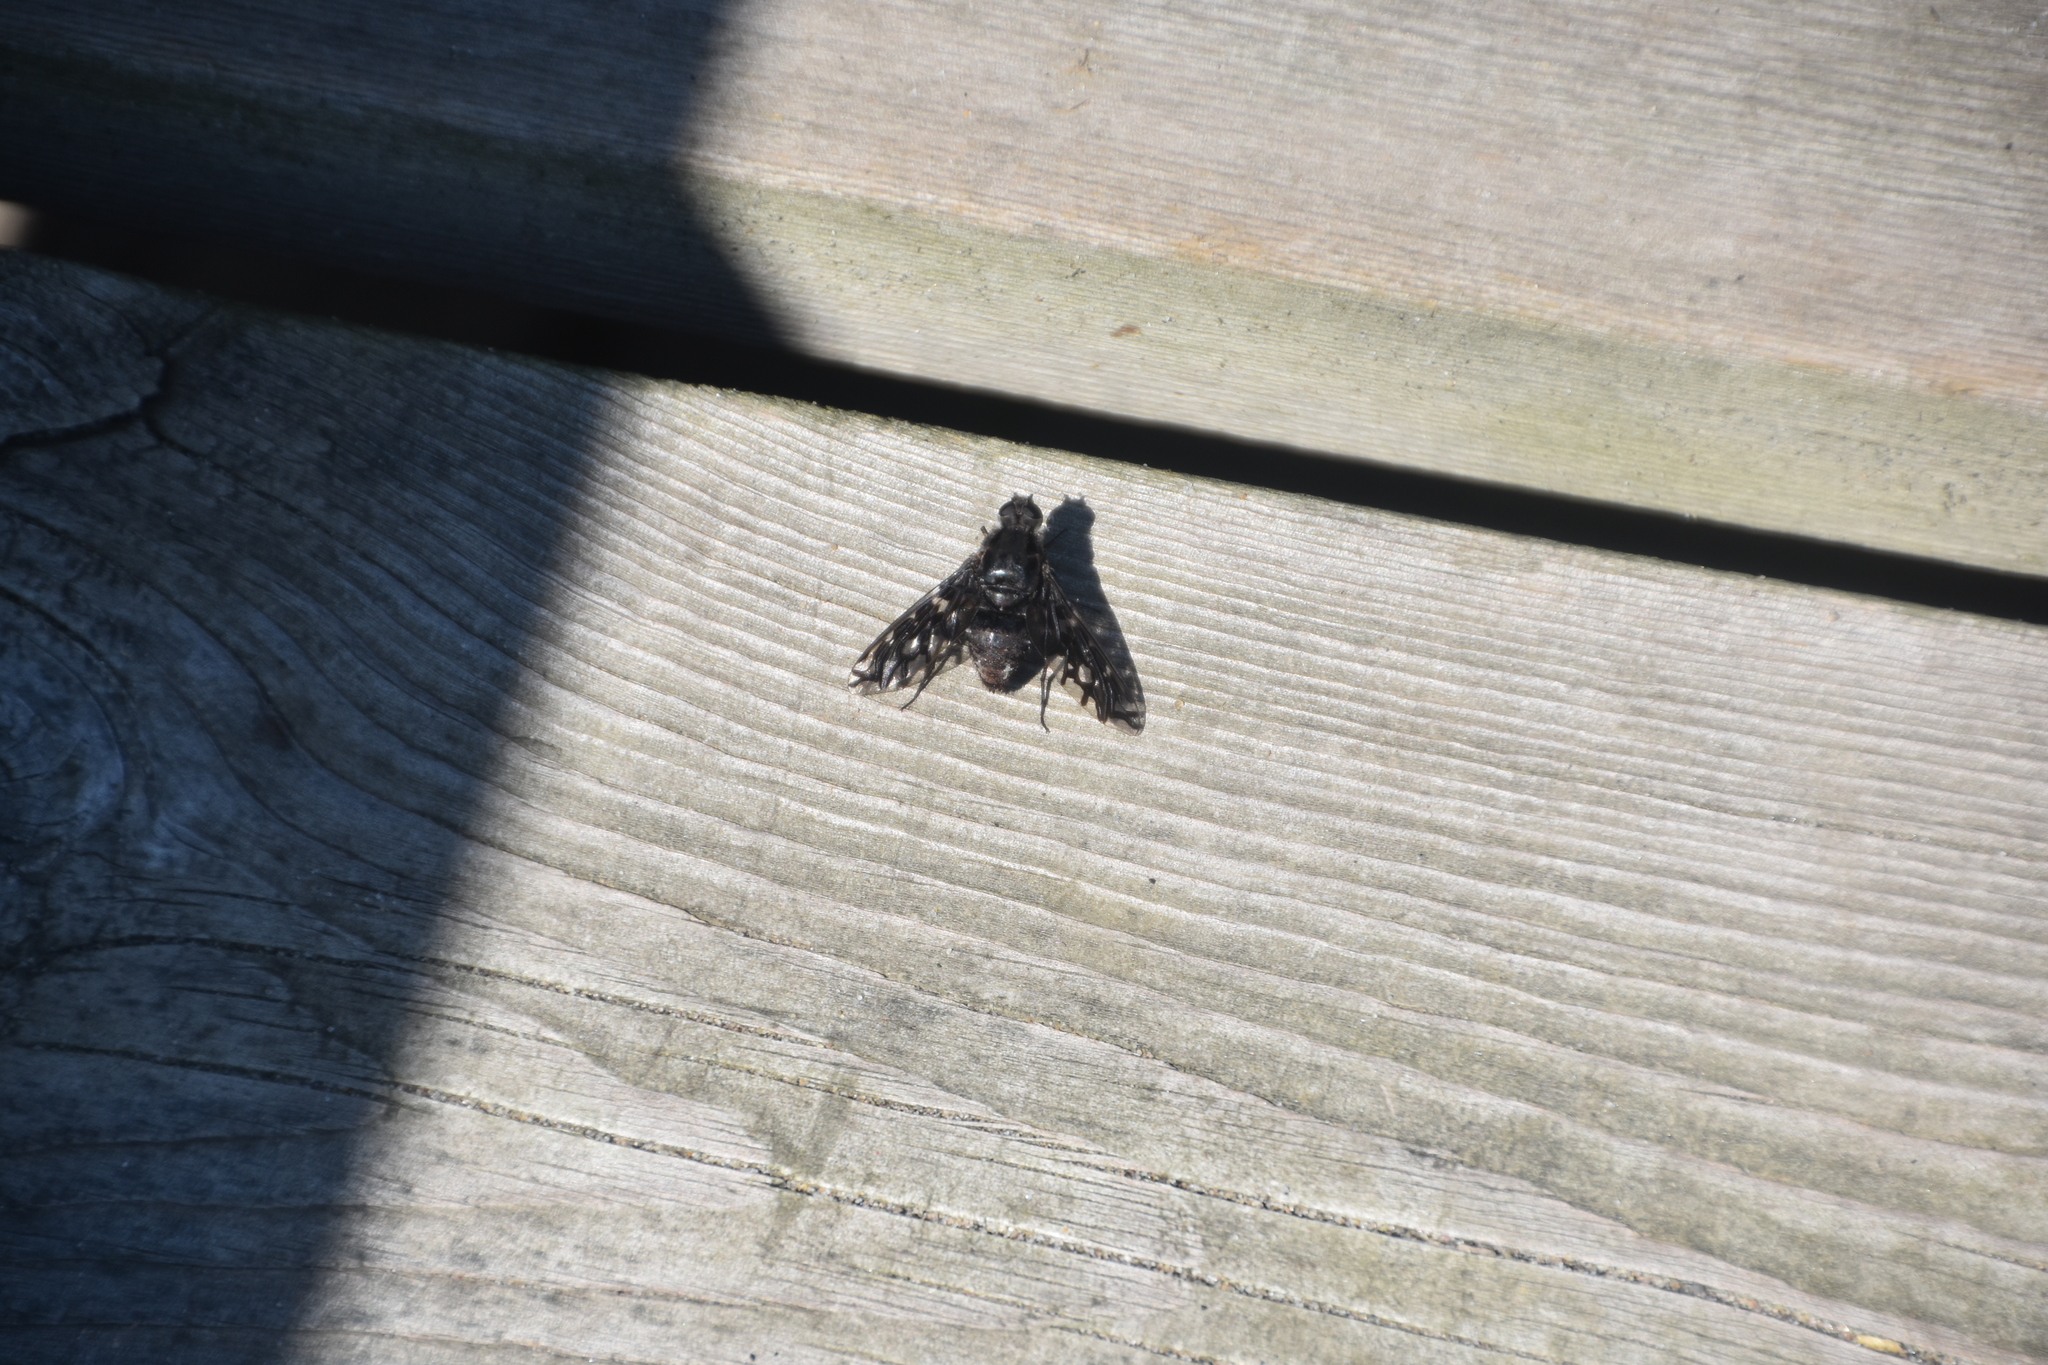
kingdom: Animalia
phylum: Arthropoda
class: Insecta
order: Diptera
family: Bombyliidae
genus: Xenox
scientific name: Xenox tigrinus
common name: Tiger bee fly
